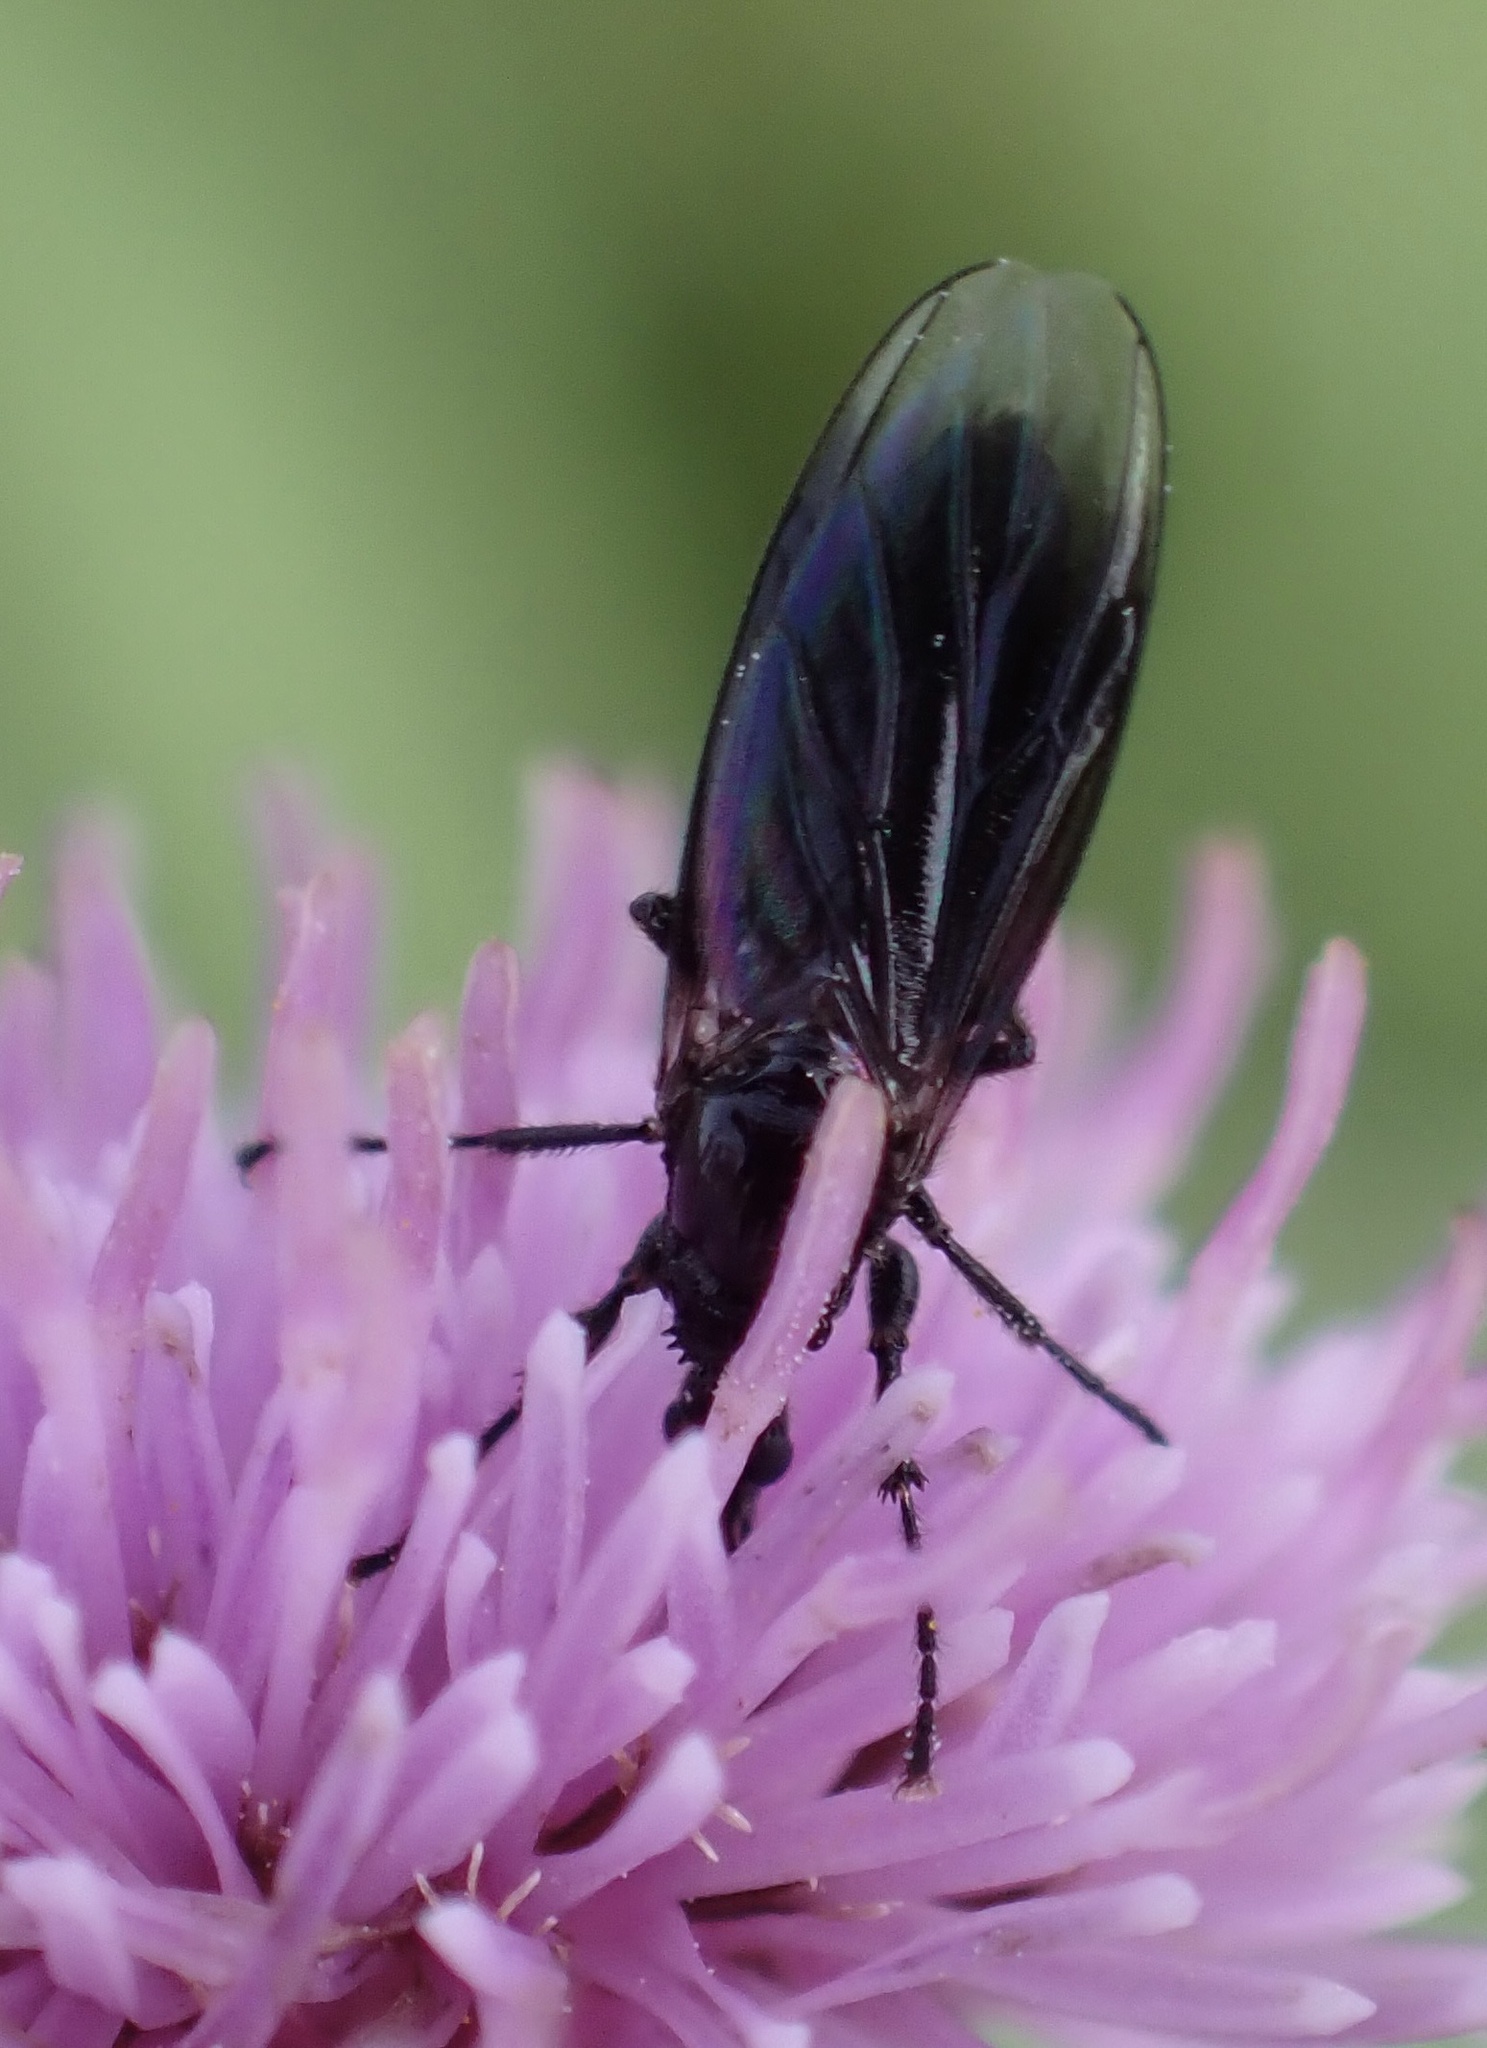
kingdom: Animalia
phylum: Arthropoda
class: Insecta
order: Diptera
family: Bibionidae
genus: Dilophus
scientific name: Dilophus febrilis
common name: Fever fly
